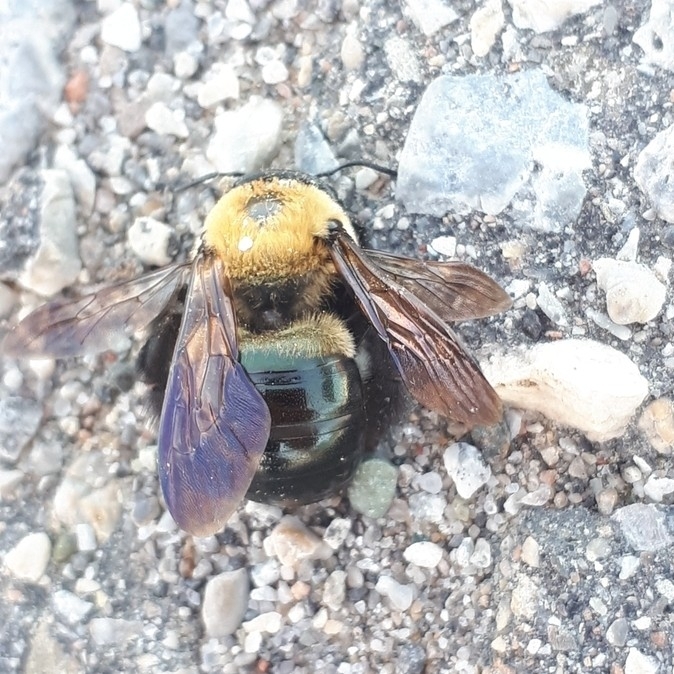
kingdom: Animalia
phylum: Arthropoda
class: Insecta
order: Hymenoptera
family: Apidae
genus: Xylocopa
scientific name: Xylocopa virginica
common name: Carpenter bee
